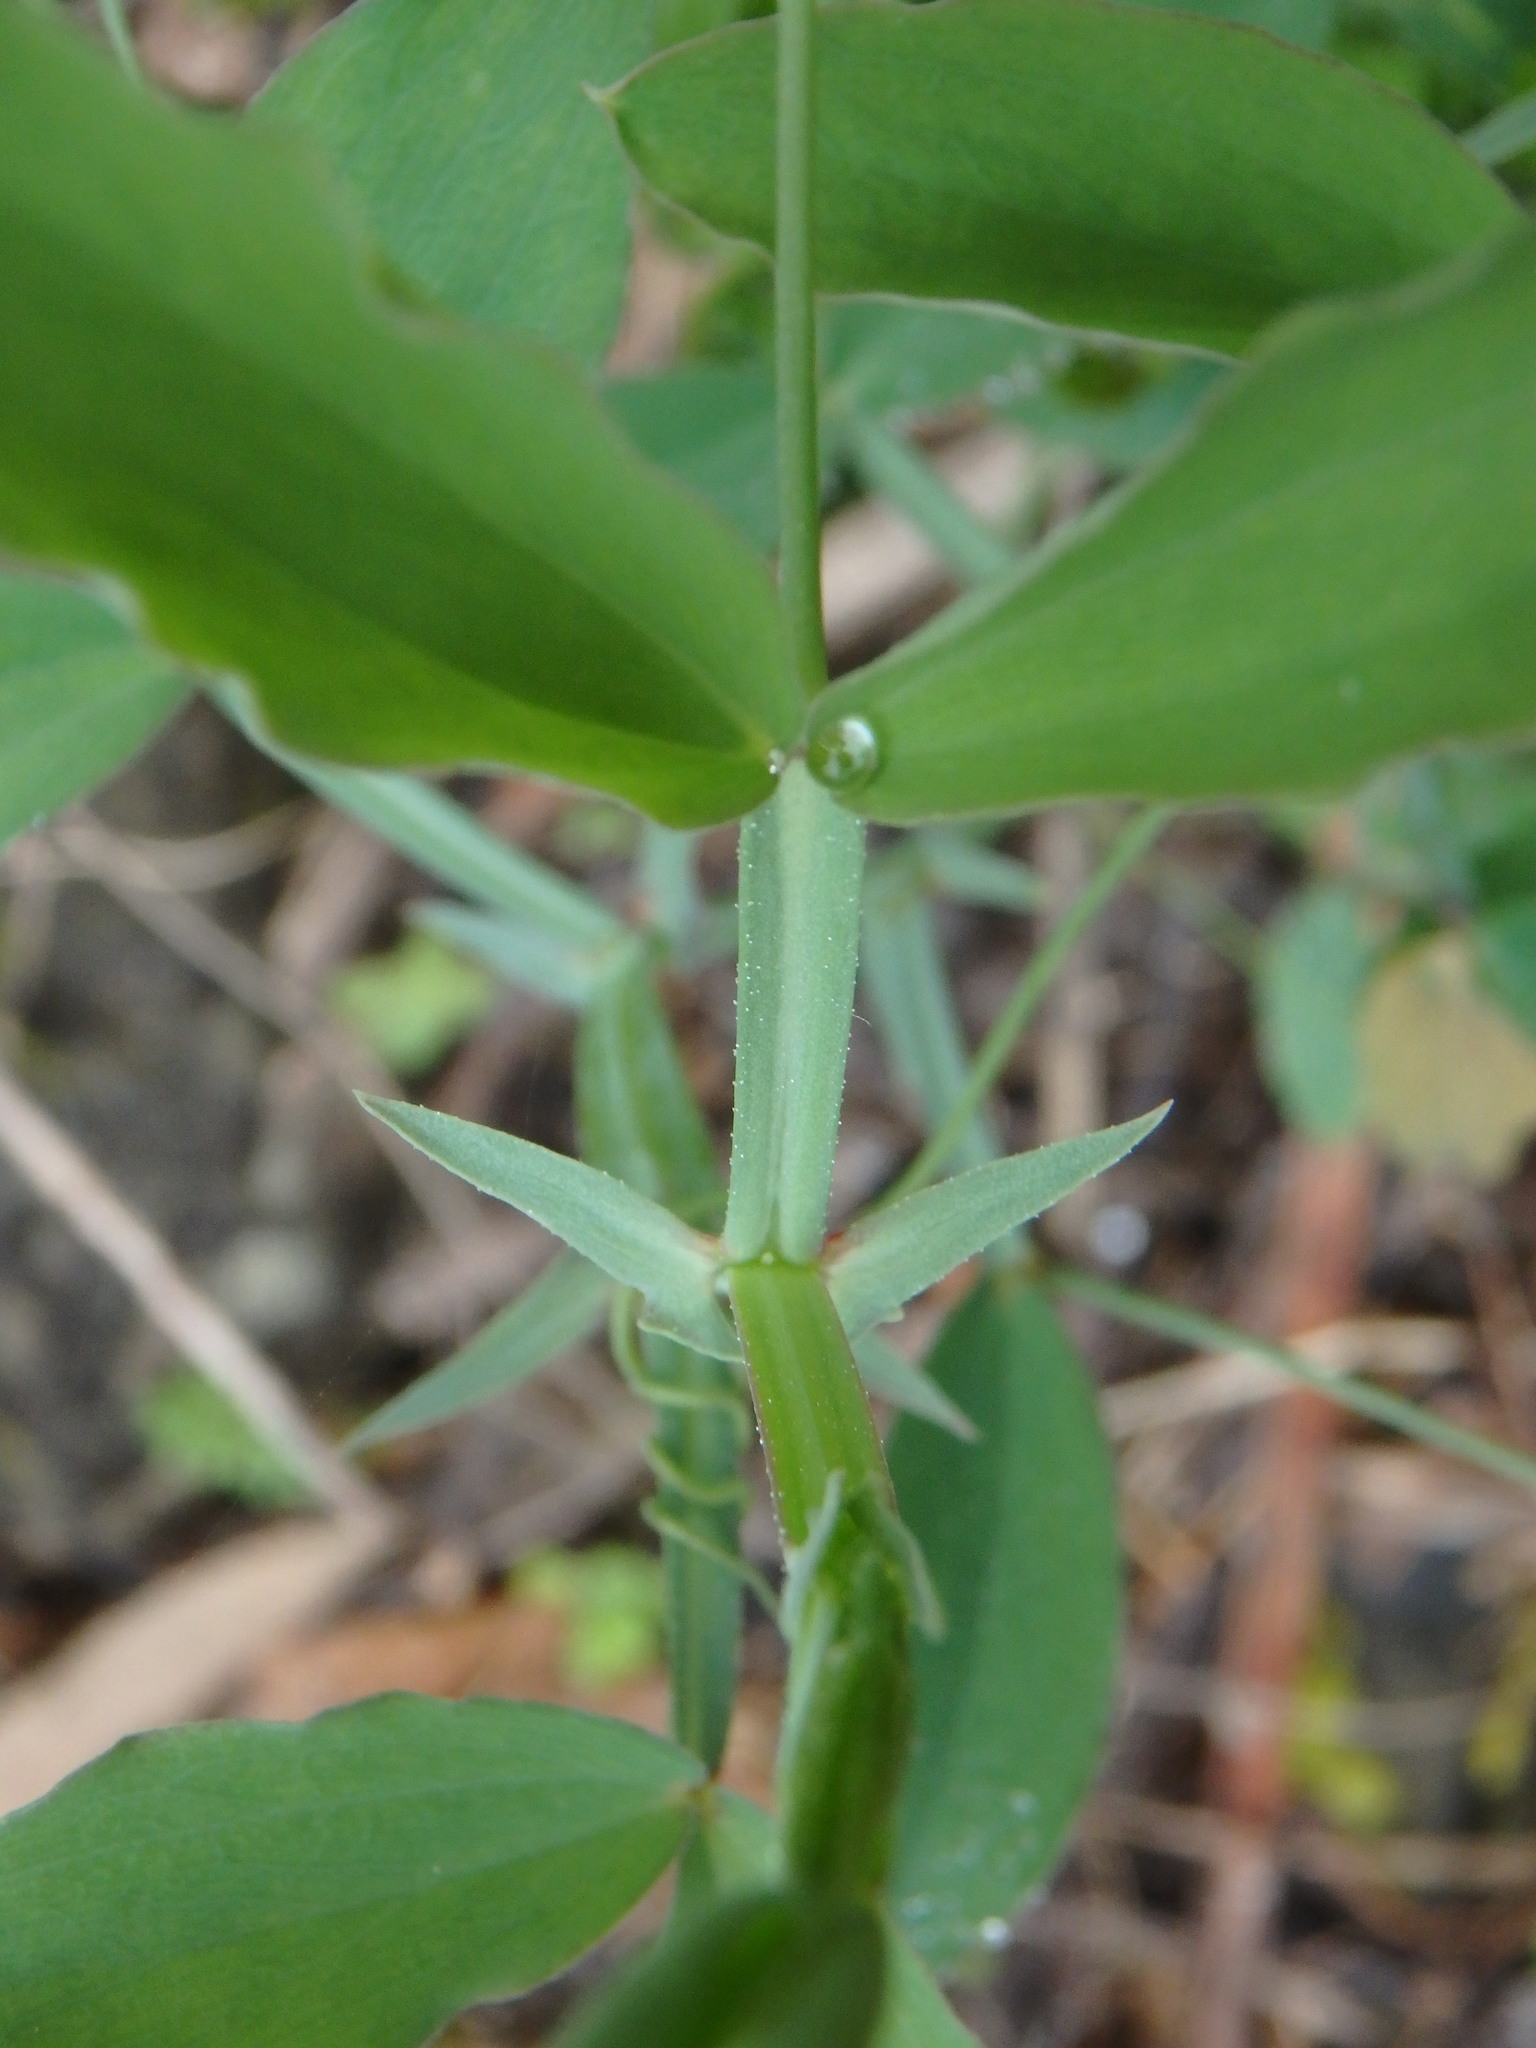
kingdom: Plantae
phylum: Tracheophyta
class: Magnoliopsida
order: Fabales
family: Fabaceae
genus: Lathyrus
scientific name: Lathyrus tingitanus
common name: Tangier pea
